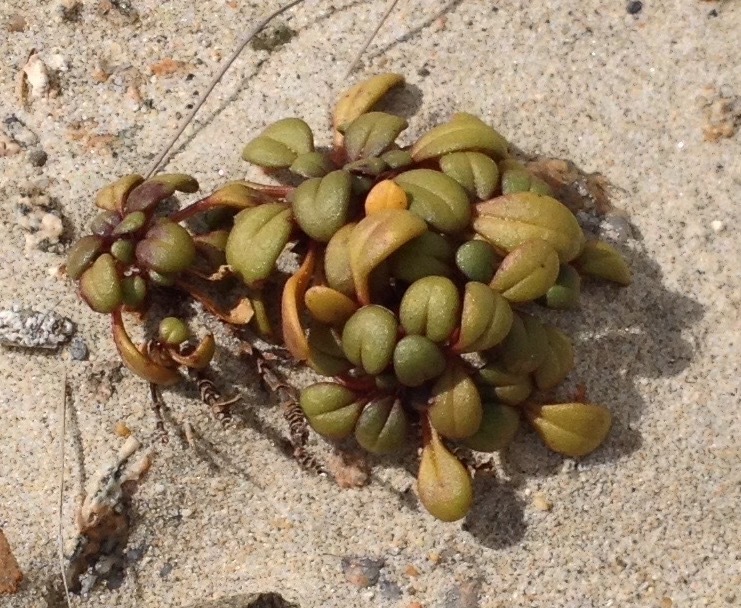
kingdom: Plantae
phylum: Tracheophyta
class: Magnoliopsida
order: Gentianales
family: Gentianaceae
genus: Gentianella
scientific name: Gentianella saxosa
